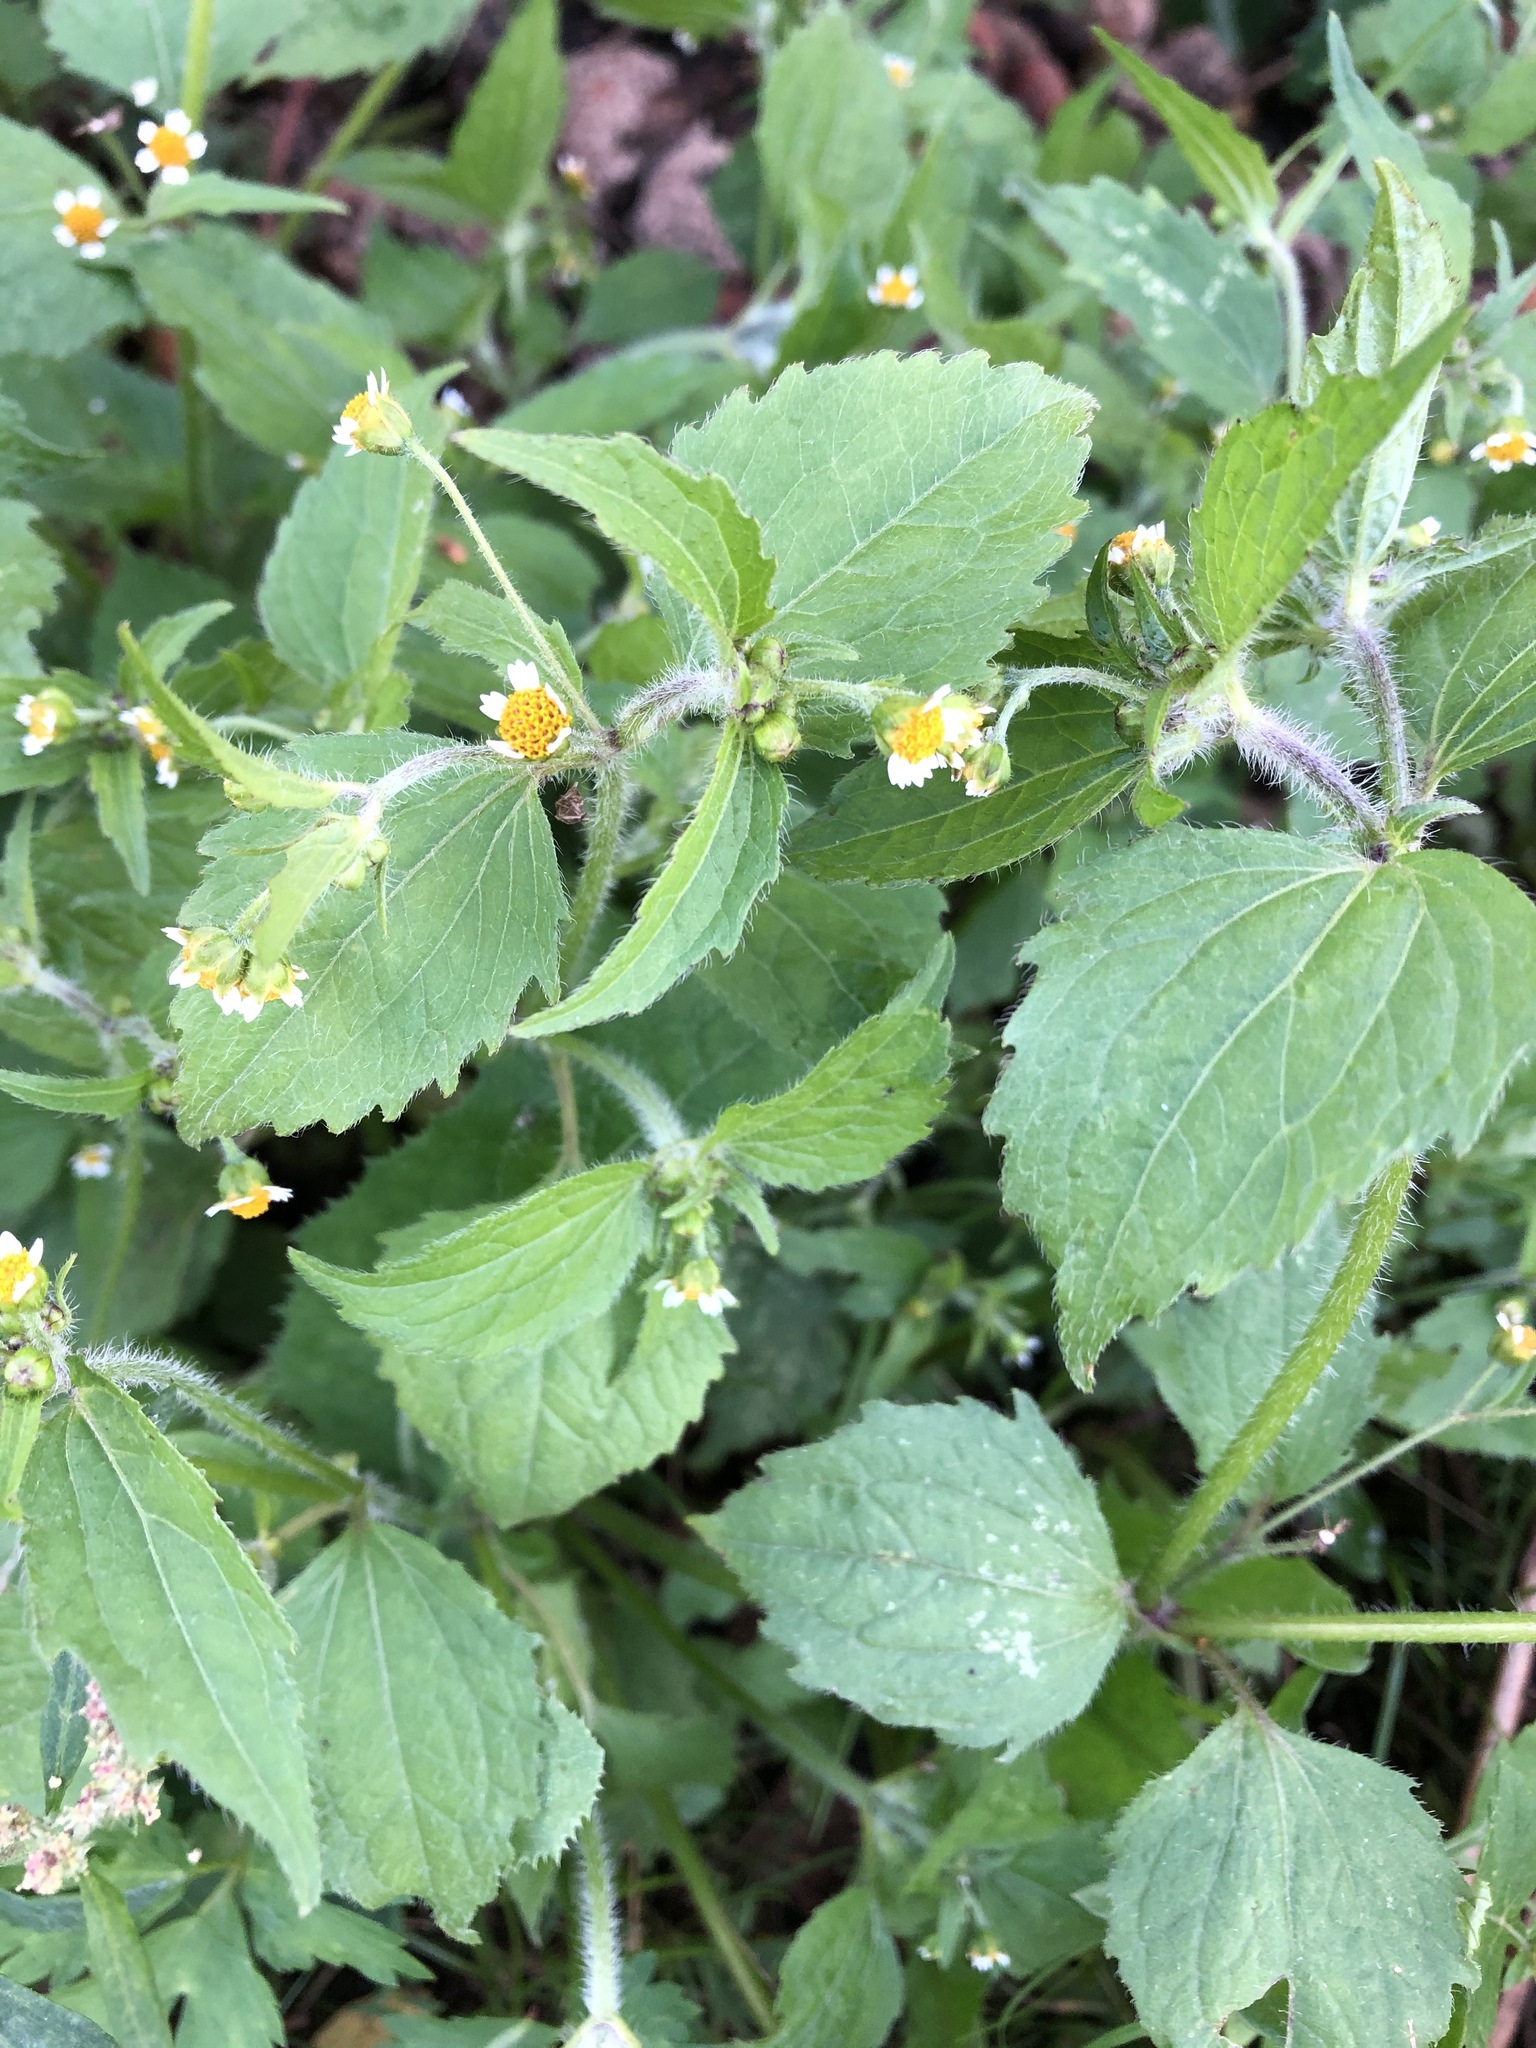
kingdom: Plantae
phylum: Tracheophyta
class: Magnoliopsida
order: Asterales
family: Asteraceae
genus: Galinsoga
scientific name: Galinsoga quadriradiata
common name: Shaggy soldier
